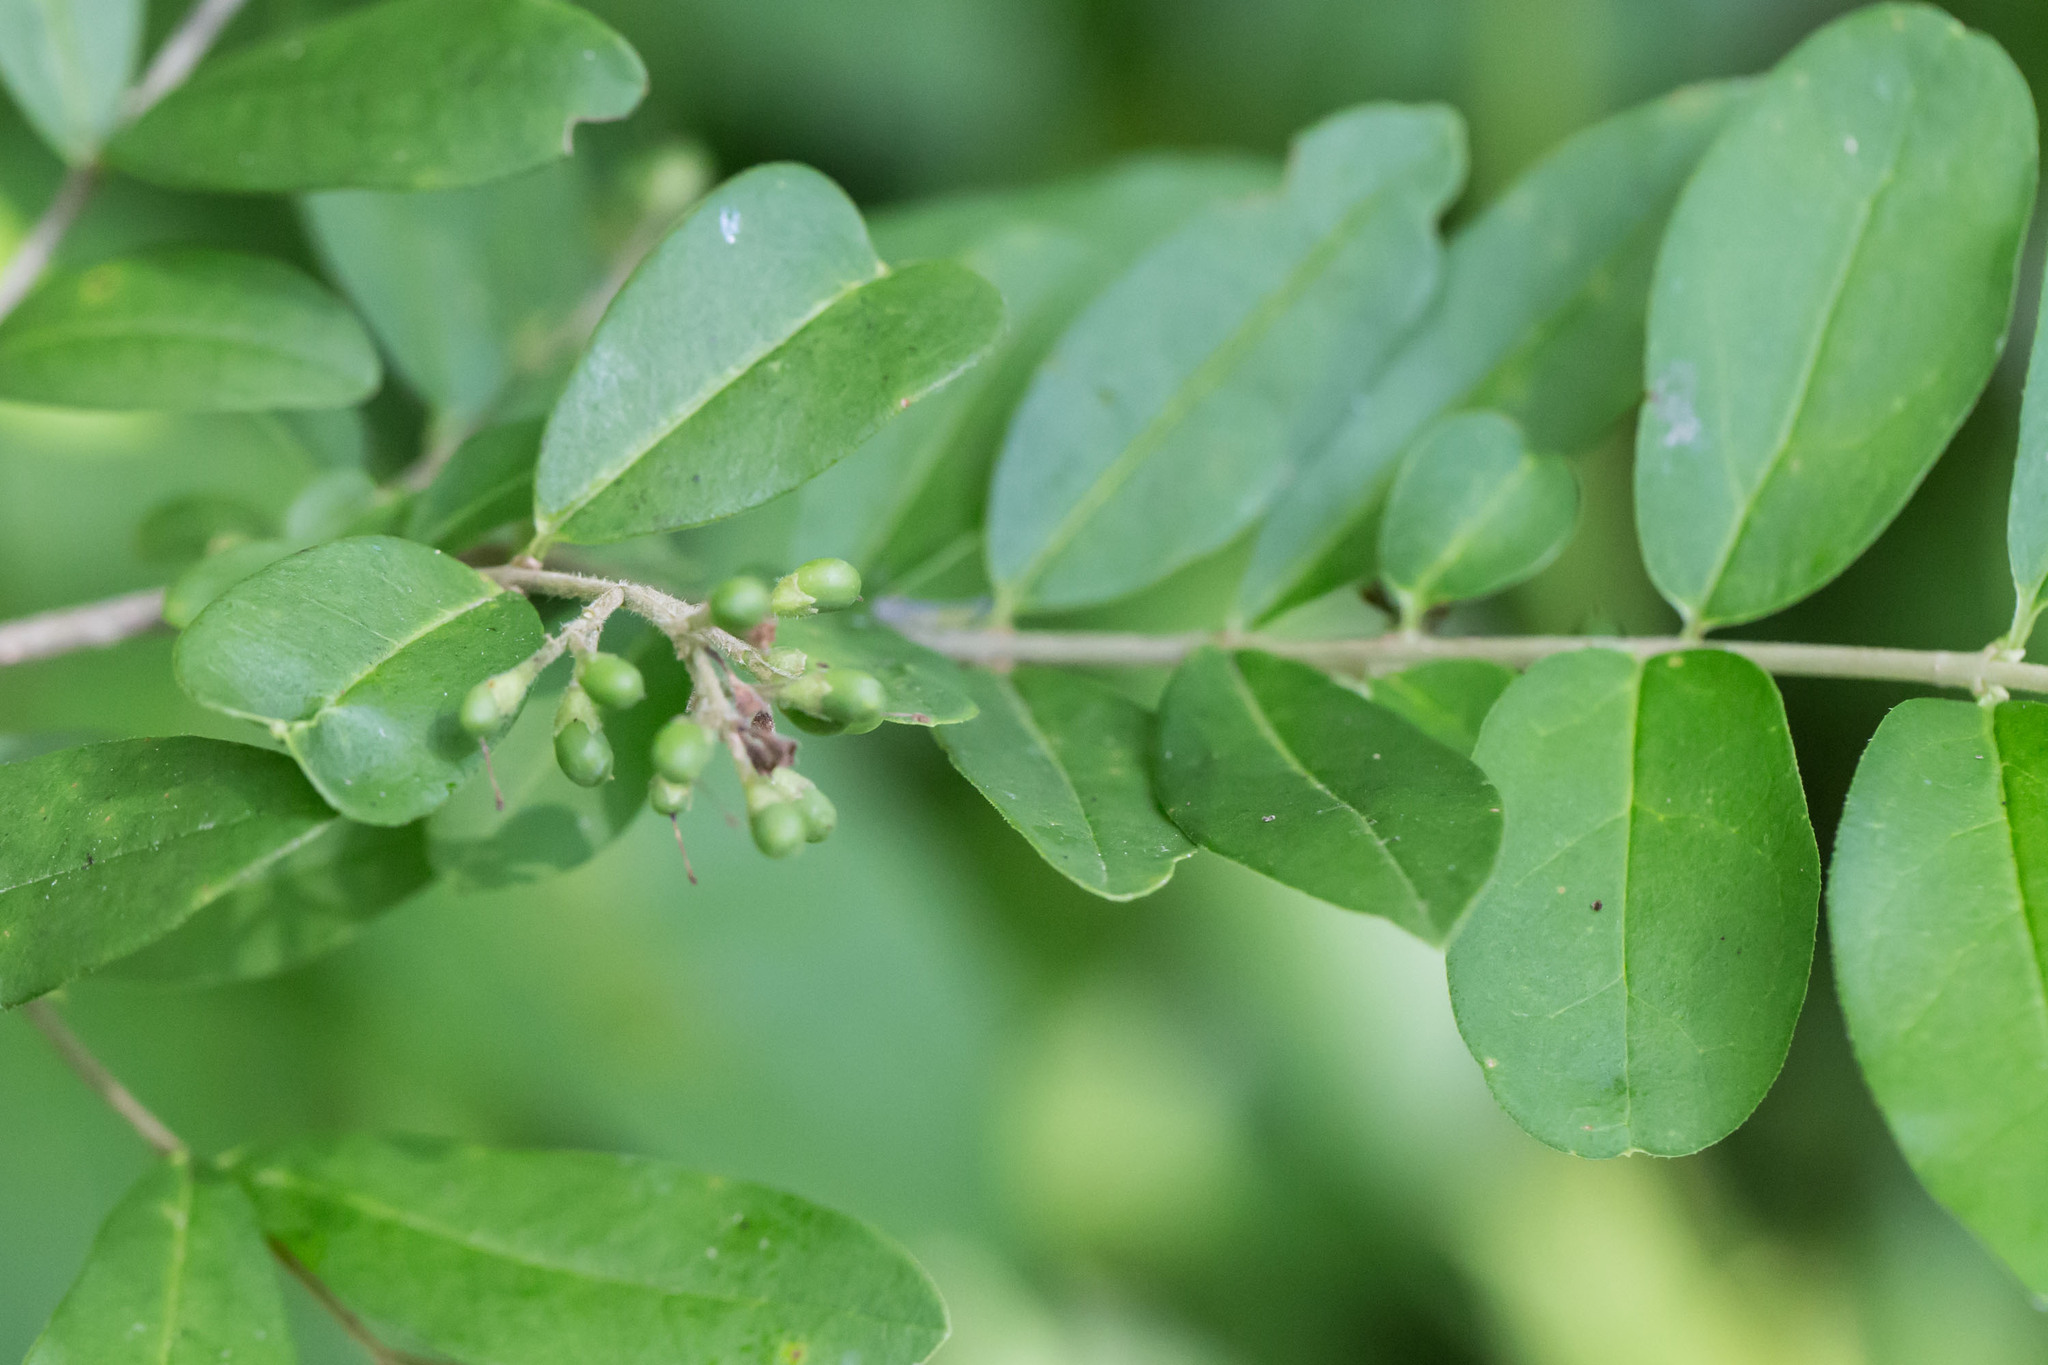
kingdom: Plantae
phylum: Tracheophyta
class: Magnoliopsida
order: Lamiales
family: Oleaceae
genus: Ligustrum
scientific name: Ligustrum obtusifolium
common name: Border privet
